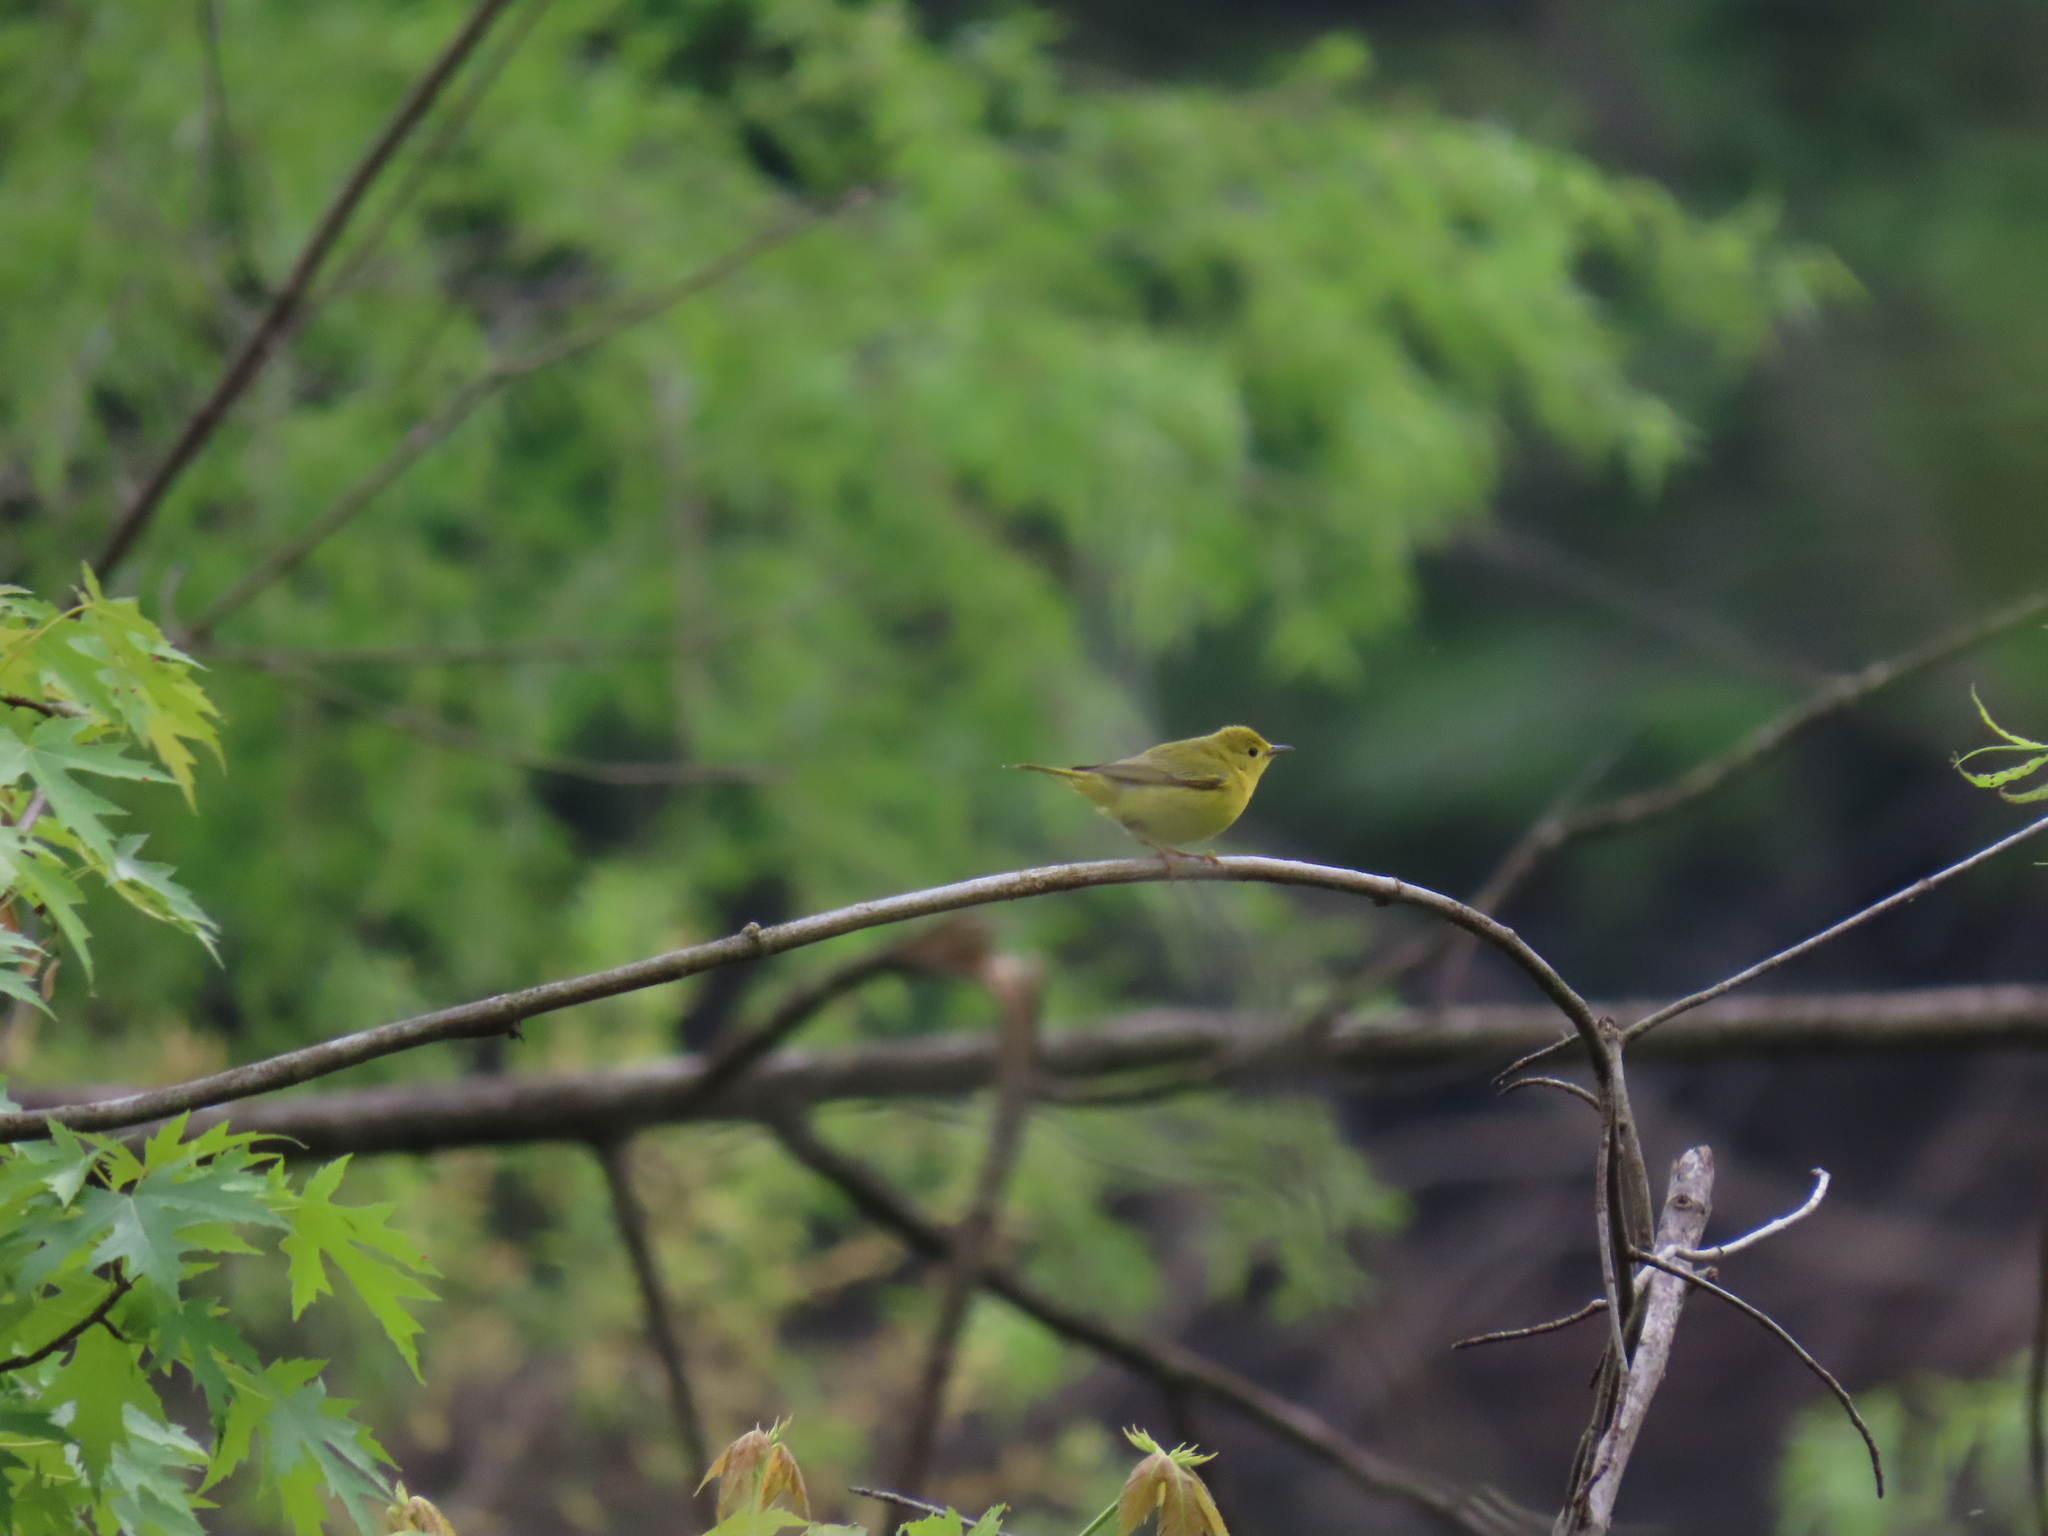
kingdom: Animalia
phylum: Chordata
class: Aves
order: Passeriformes
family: Parulidae
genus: Setophaga
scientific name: Setophaga petechia
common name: Yellow warbler
